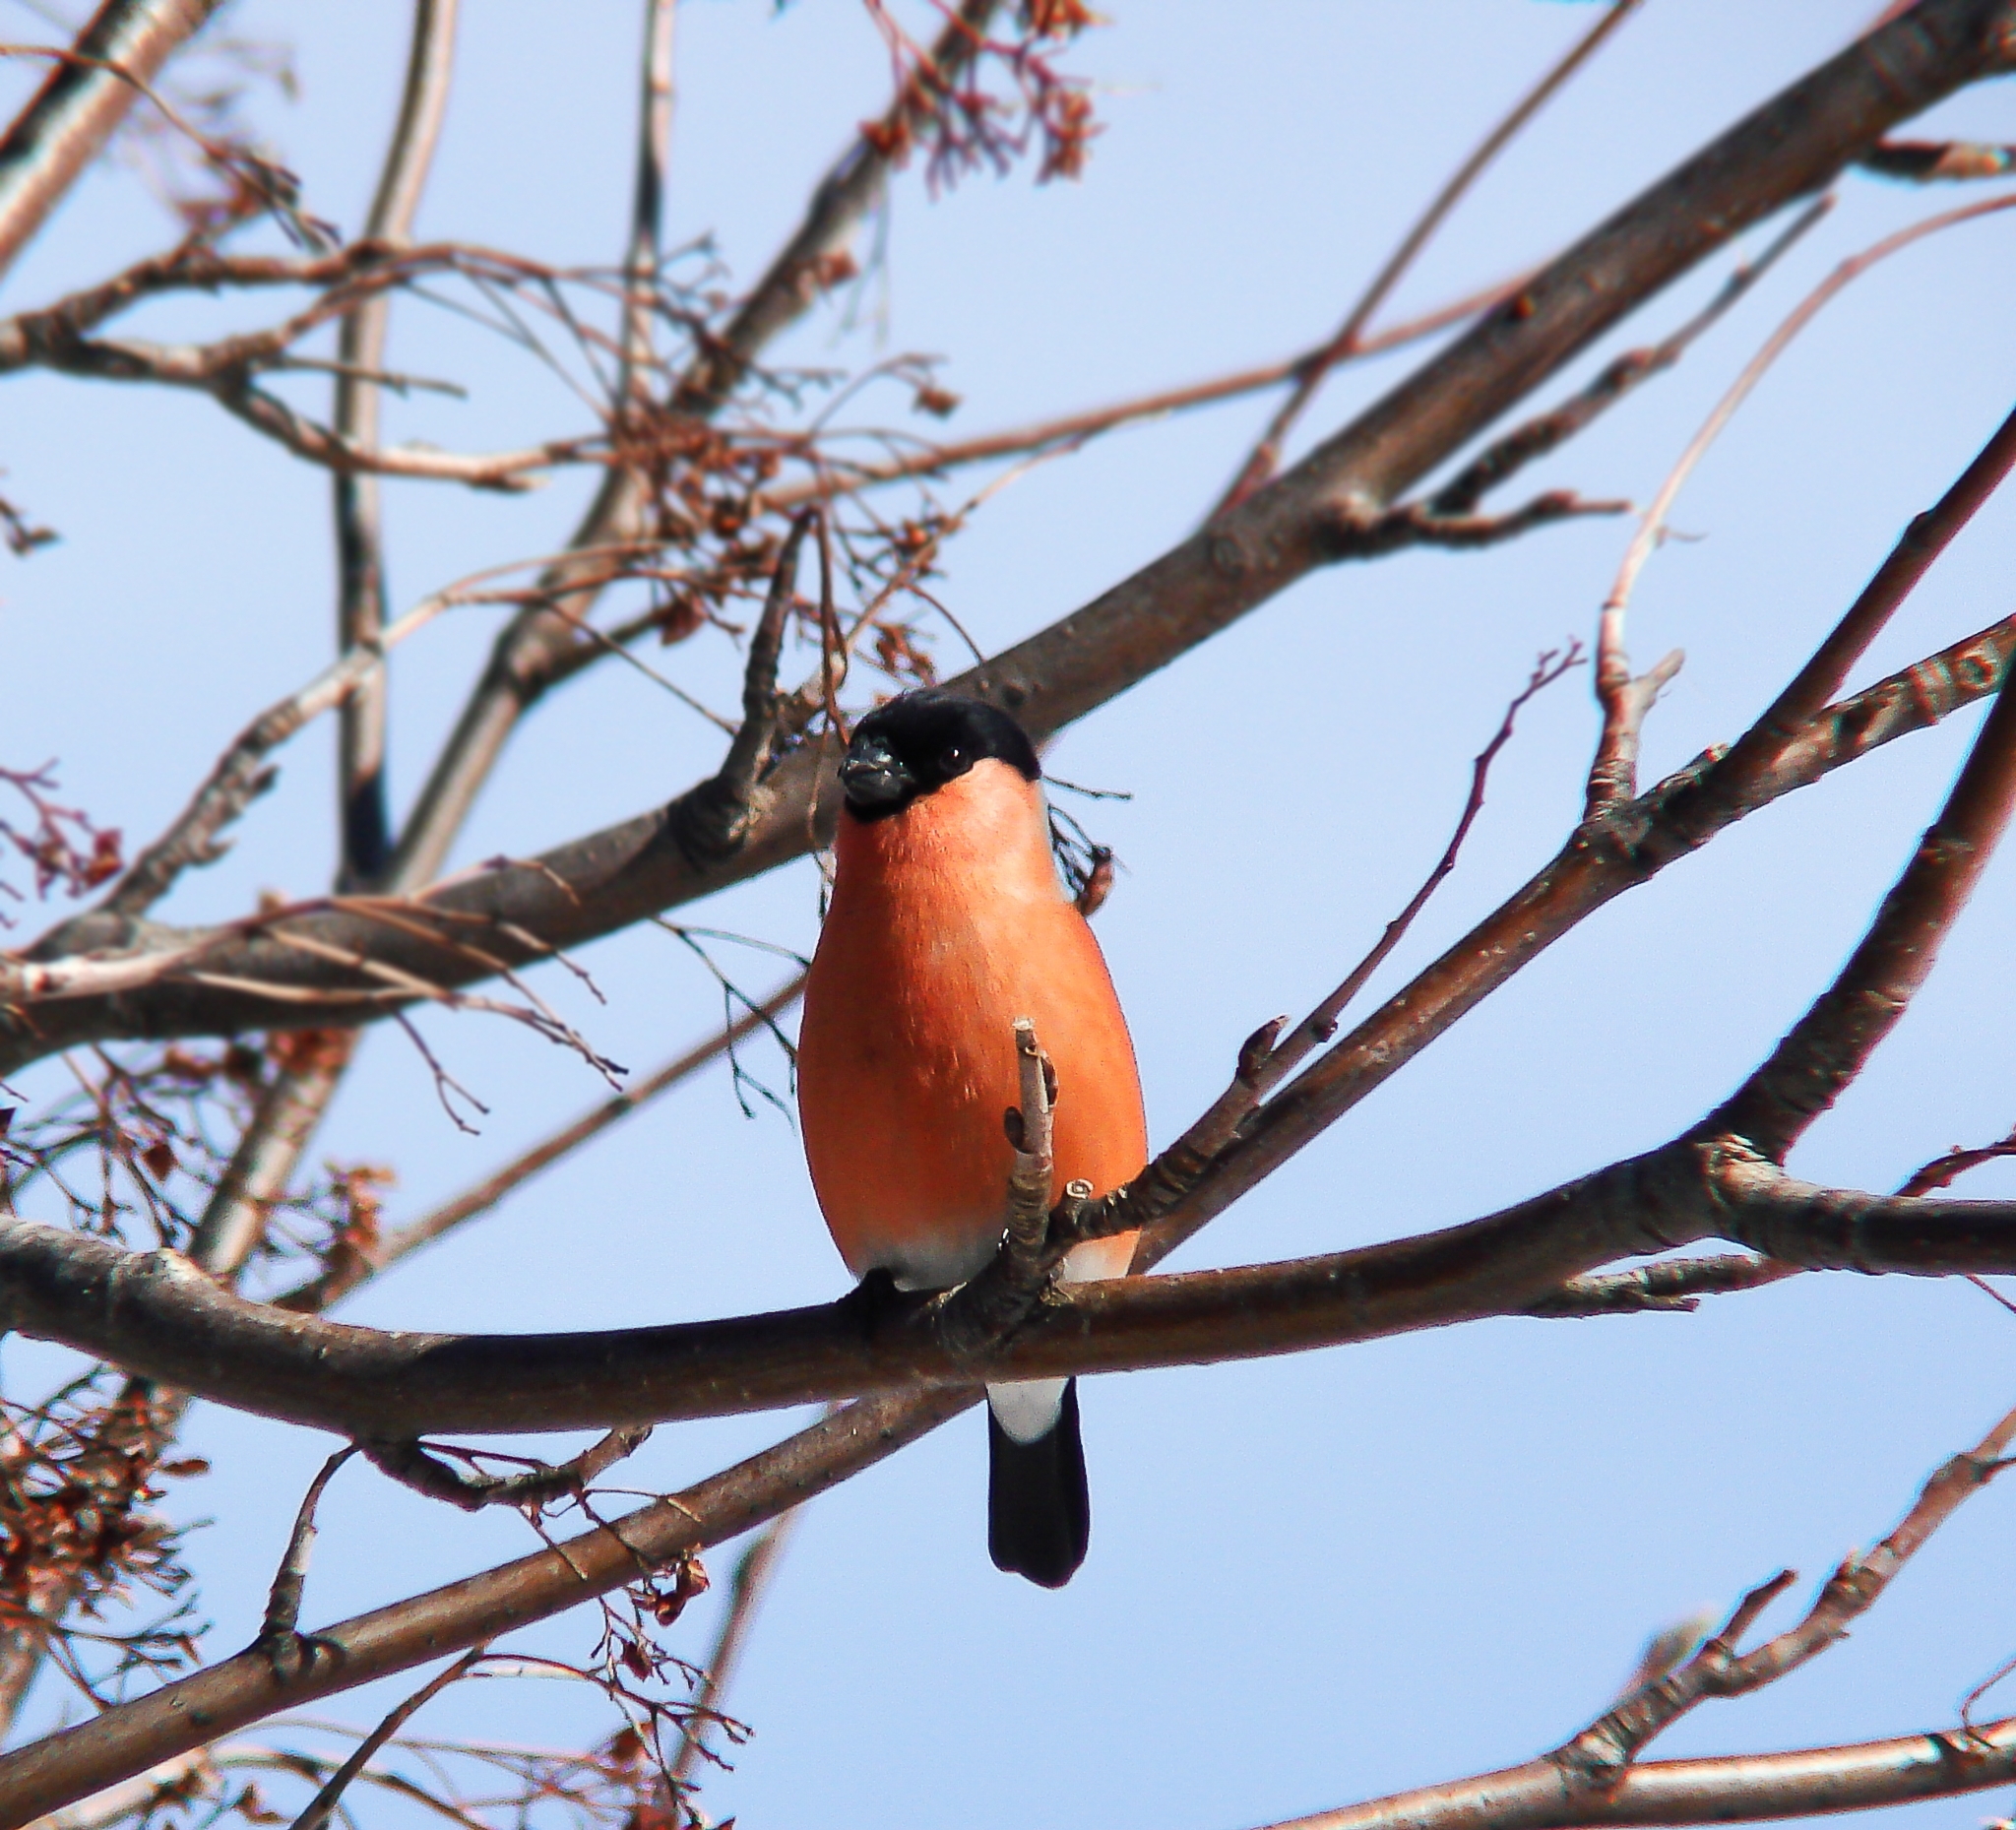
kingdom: Animalia
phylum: Chordata
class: Aves
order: Passeriformes
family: Fringillidae
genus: Pyrrhula
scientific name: Pyrrhula pyrrhula
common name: Eurasian bullfinch
